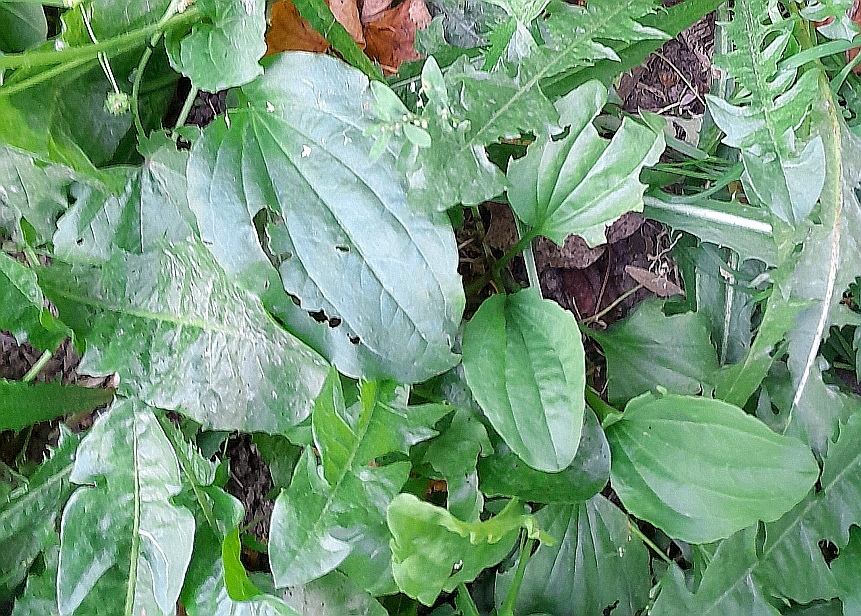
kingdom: Plantae
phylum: Tracheophyta
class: Magnoliopsida
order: Lamiales
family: Plantaginaceae
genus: Plantago
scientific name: Plantago major
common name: Common plantain
